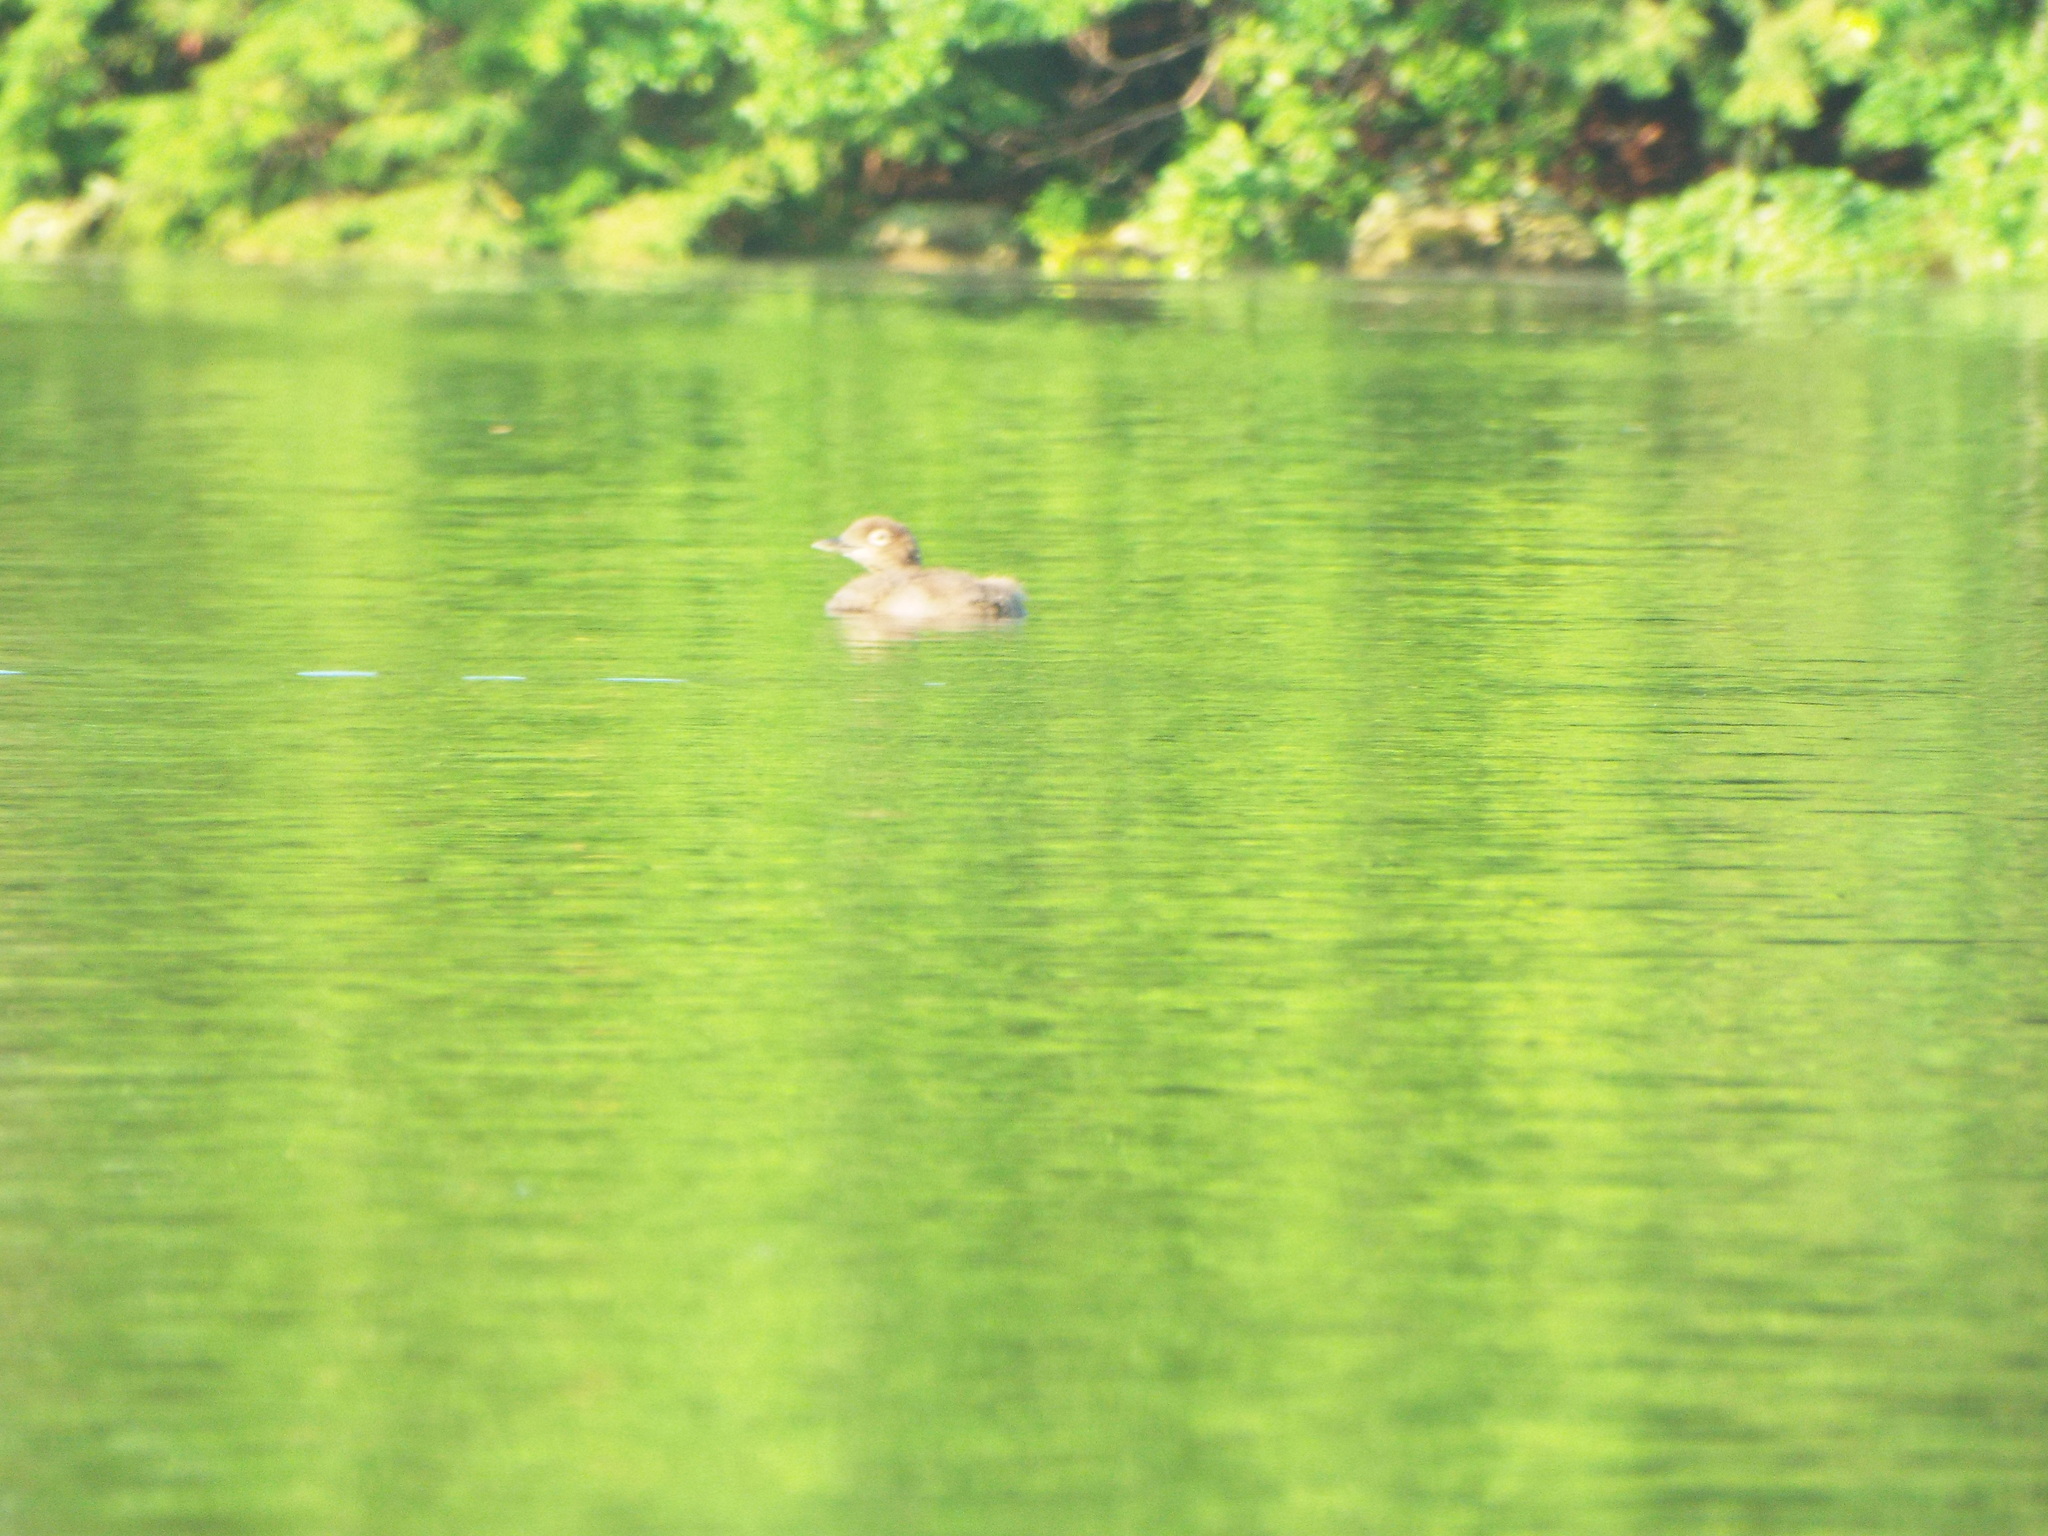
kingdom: Animalia
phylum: Chordata
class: Aves
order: Gaviiformes
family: Gaviidae
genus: Gavia
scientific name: Gavia immer
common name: Common loon
